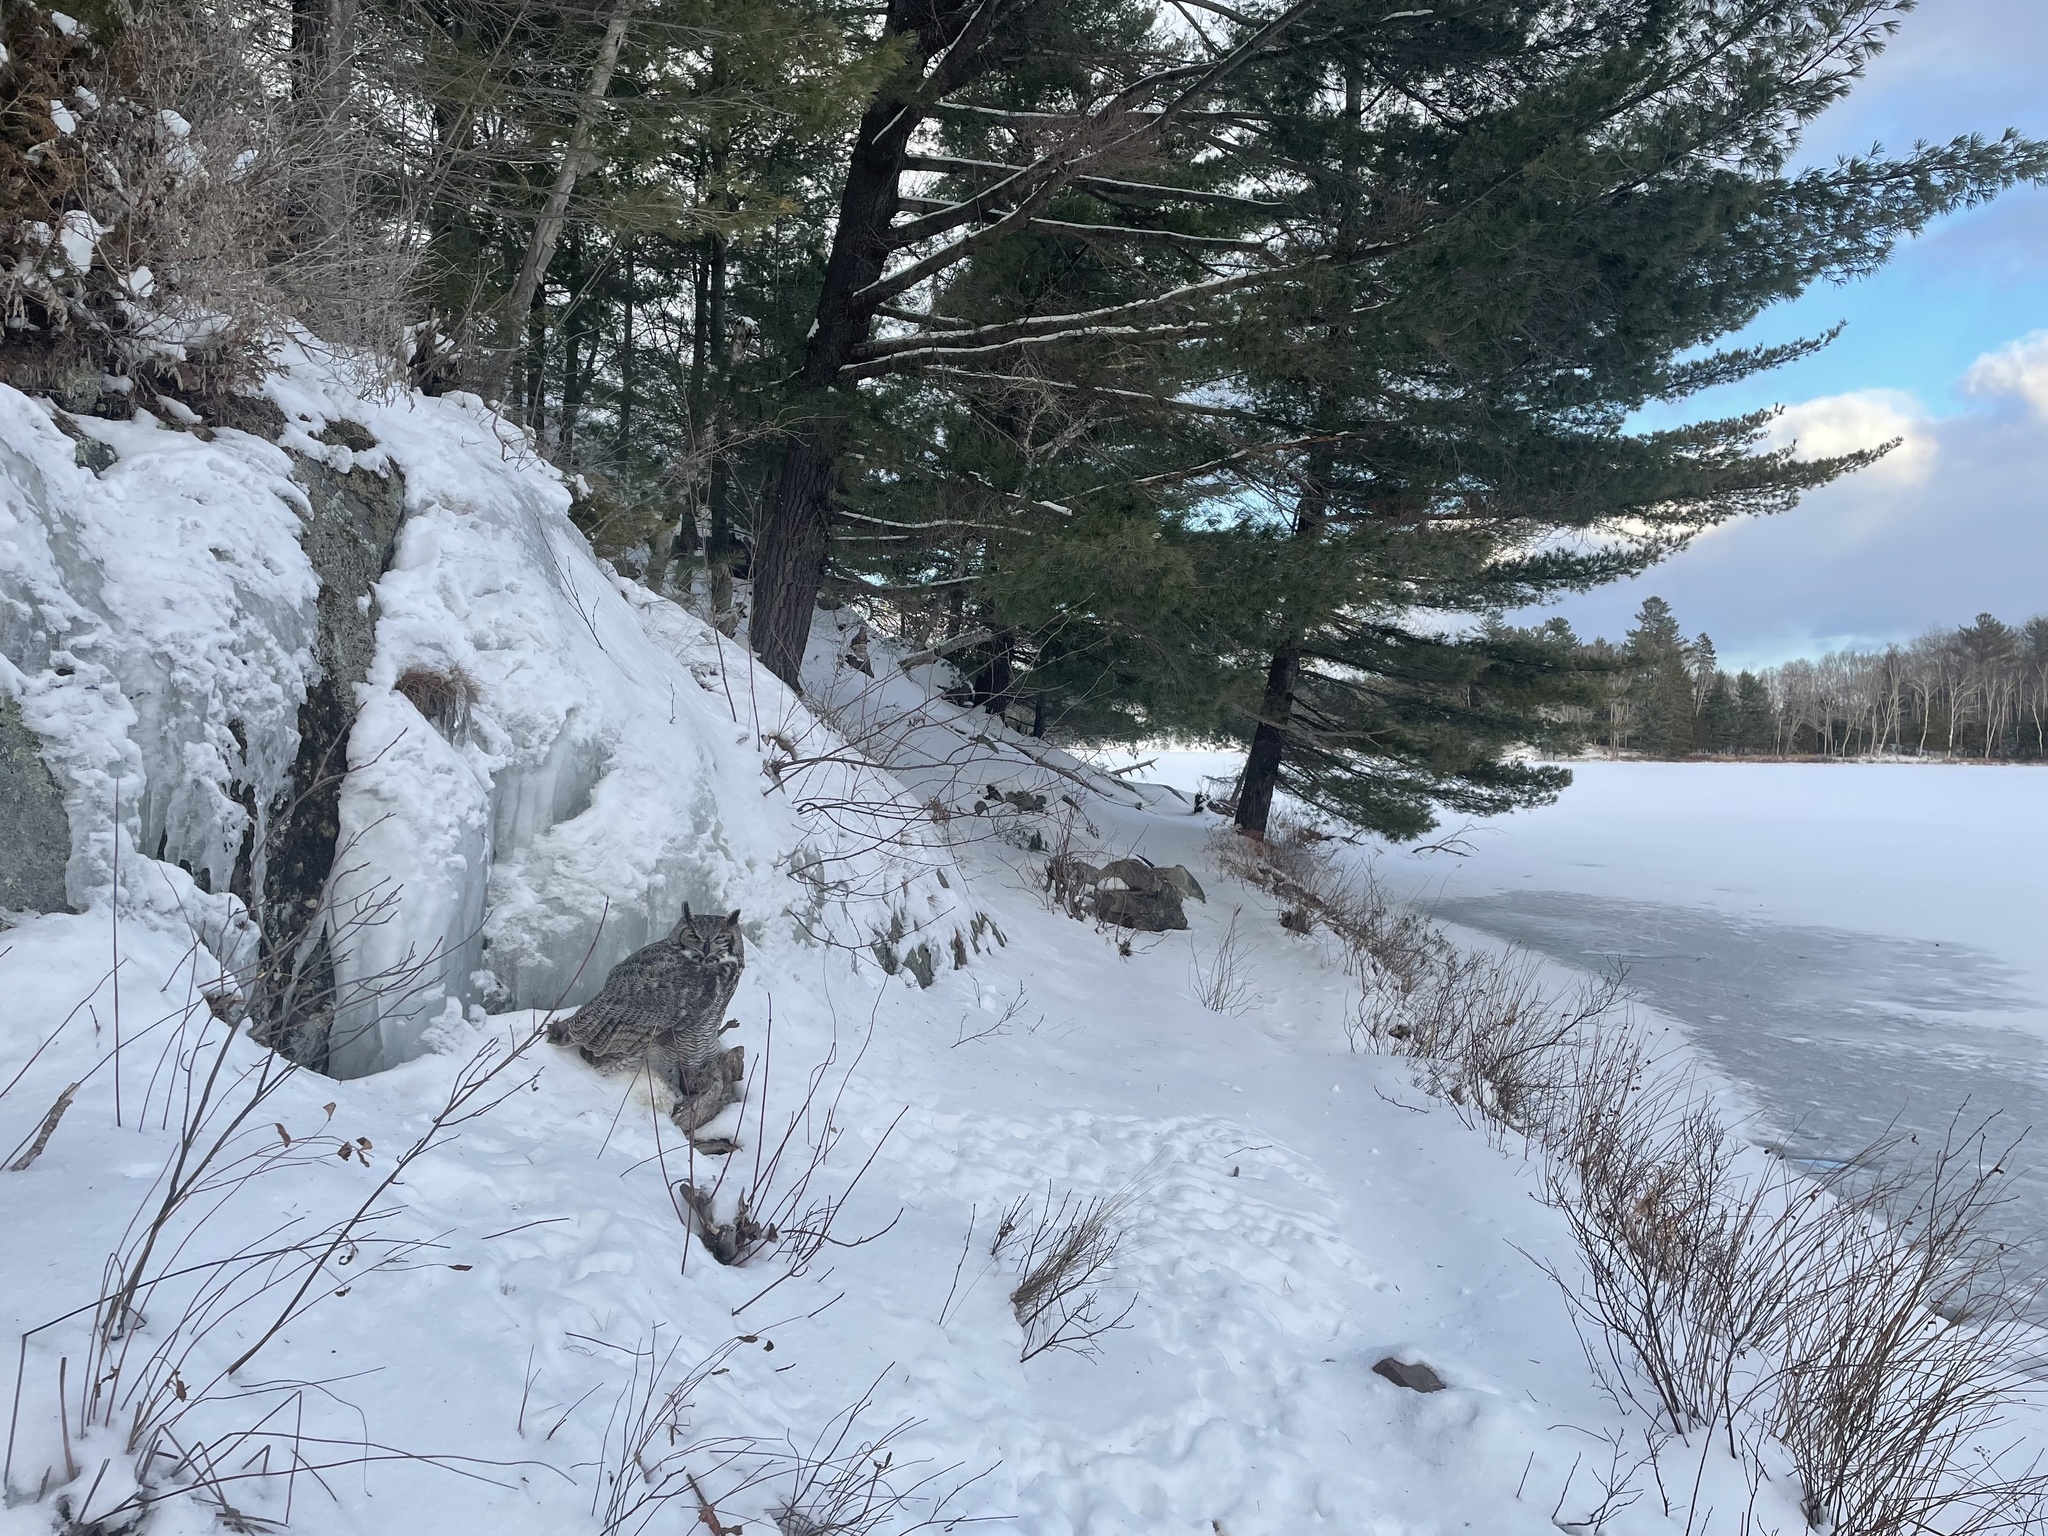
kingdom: Animalia
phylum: Chordata
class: Aves
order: Strigiformes
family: Strigidae
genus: Bubo
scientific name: Bubo virginianus
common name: Great horned owl
